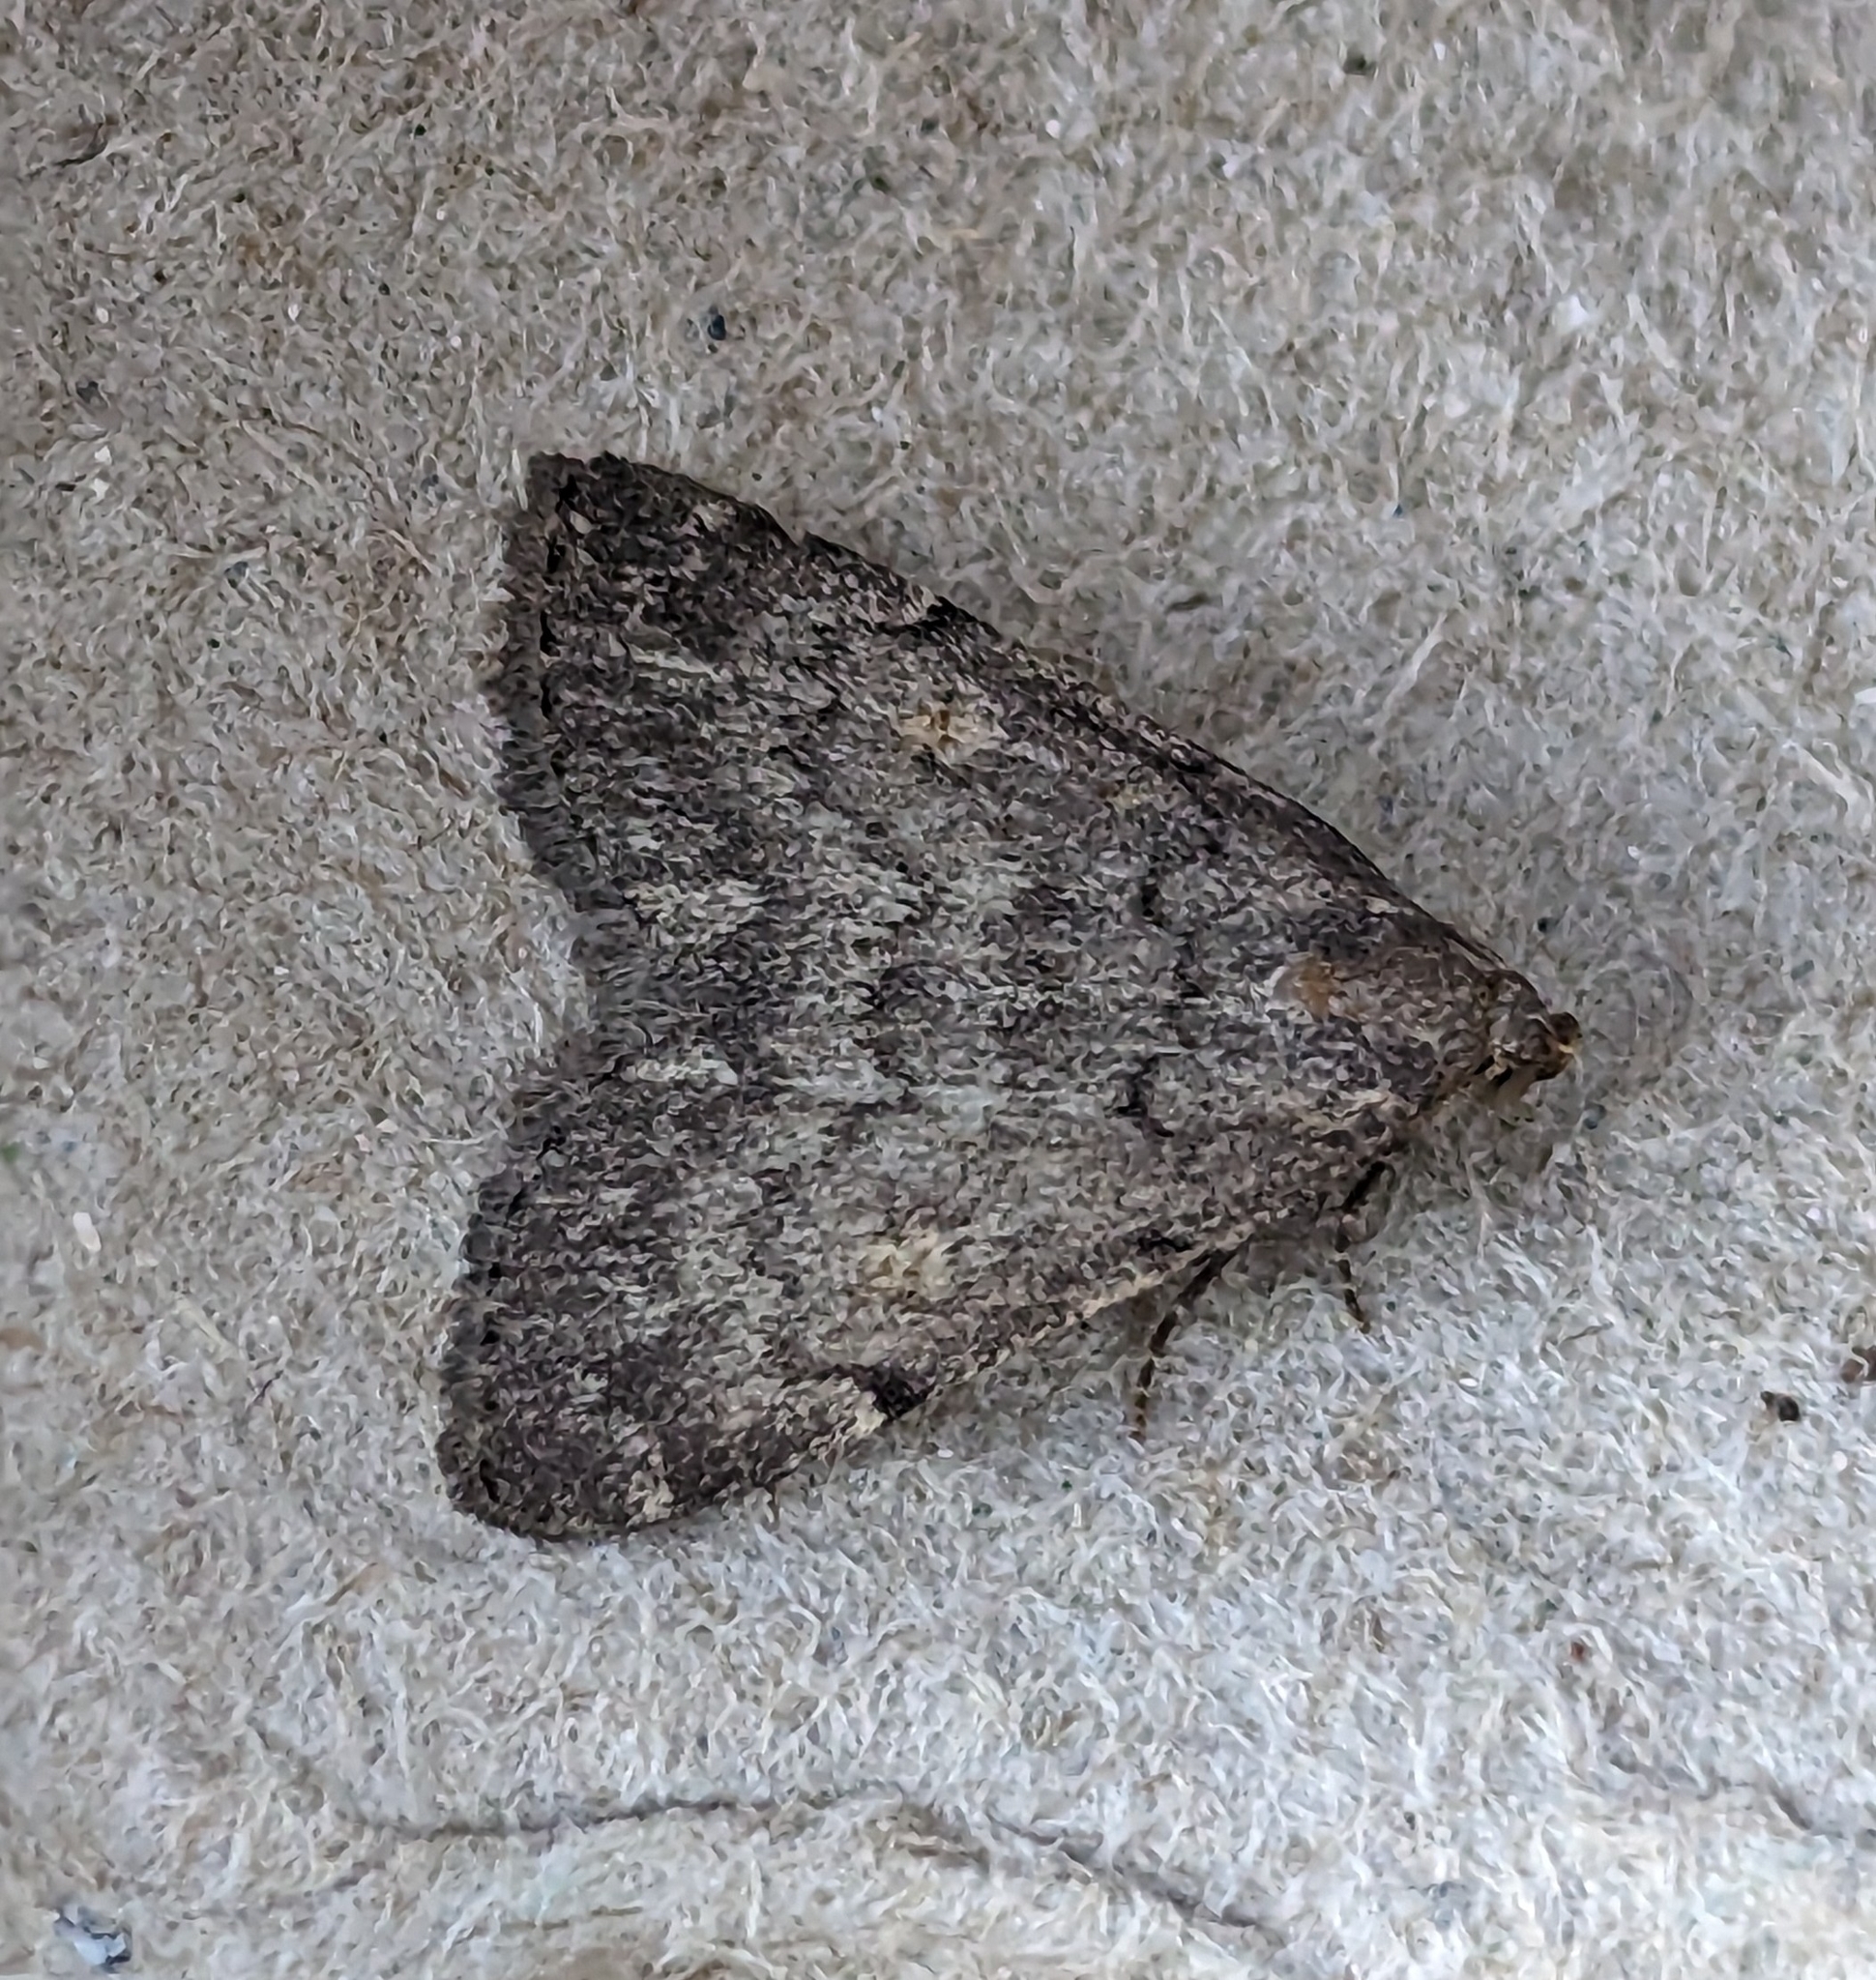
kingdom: Animalia
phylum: Arthropoda
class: Insecta
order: Lepidoptera
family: Erebidae
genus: Idia
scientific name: Idia aemula
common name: Common idia moth
